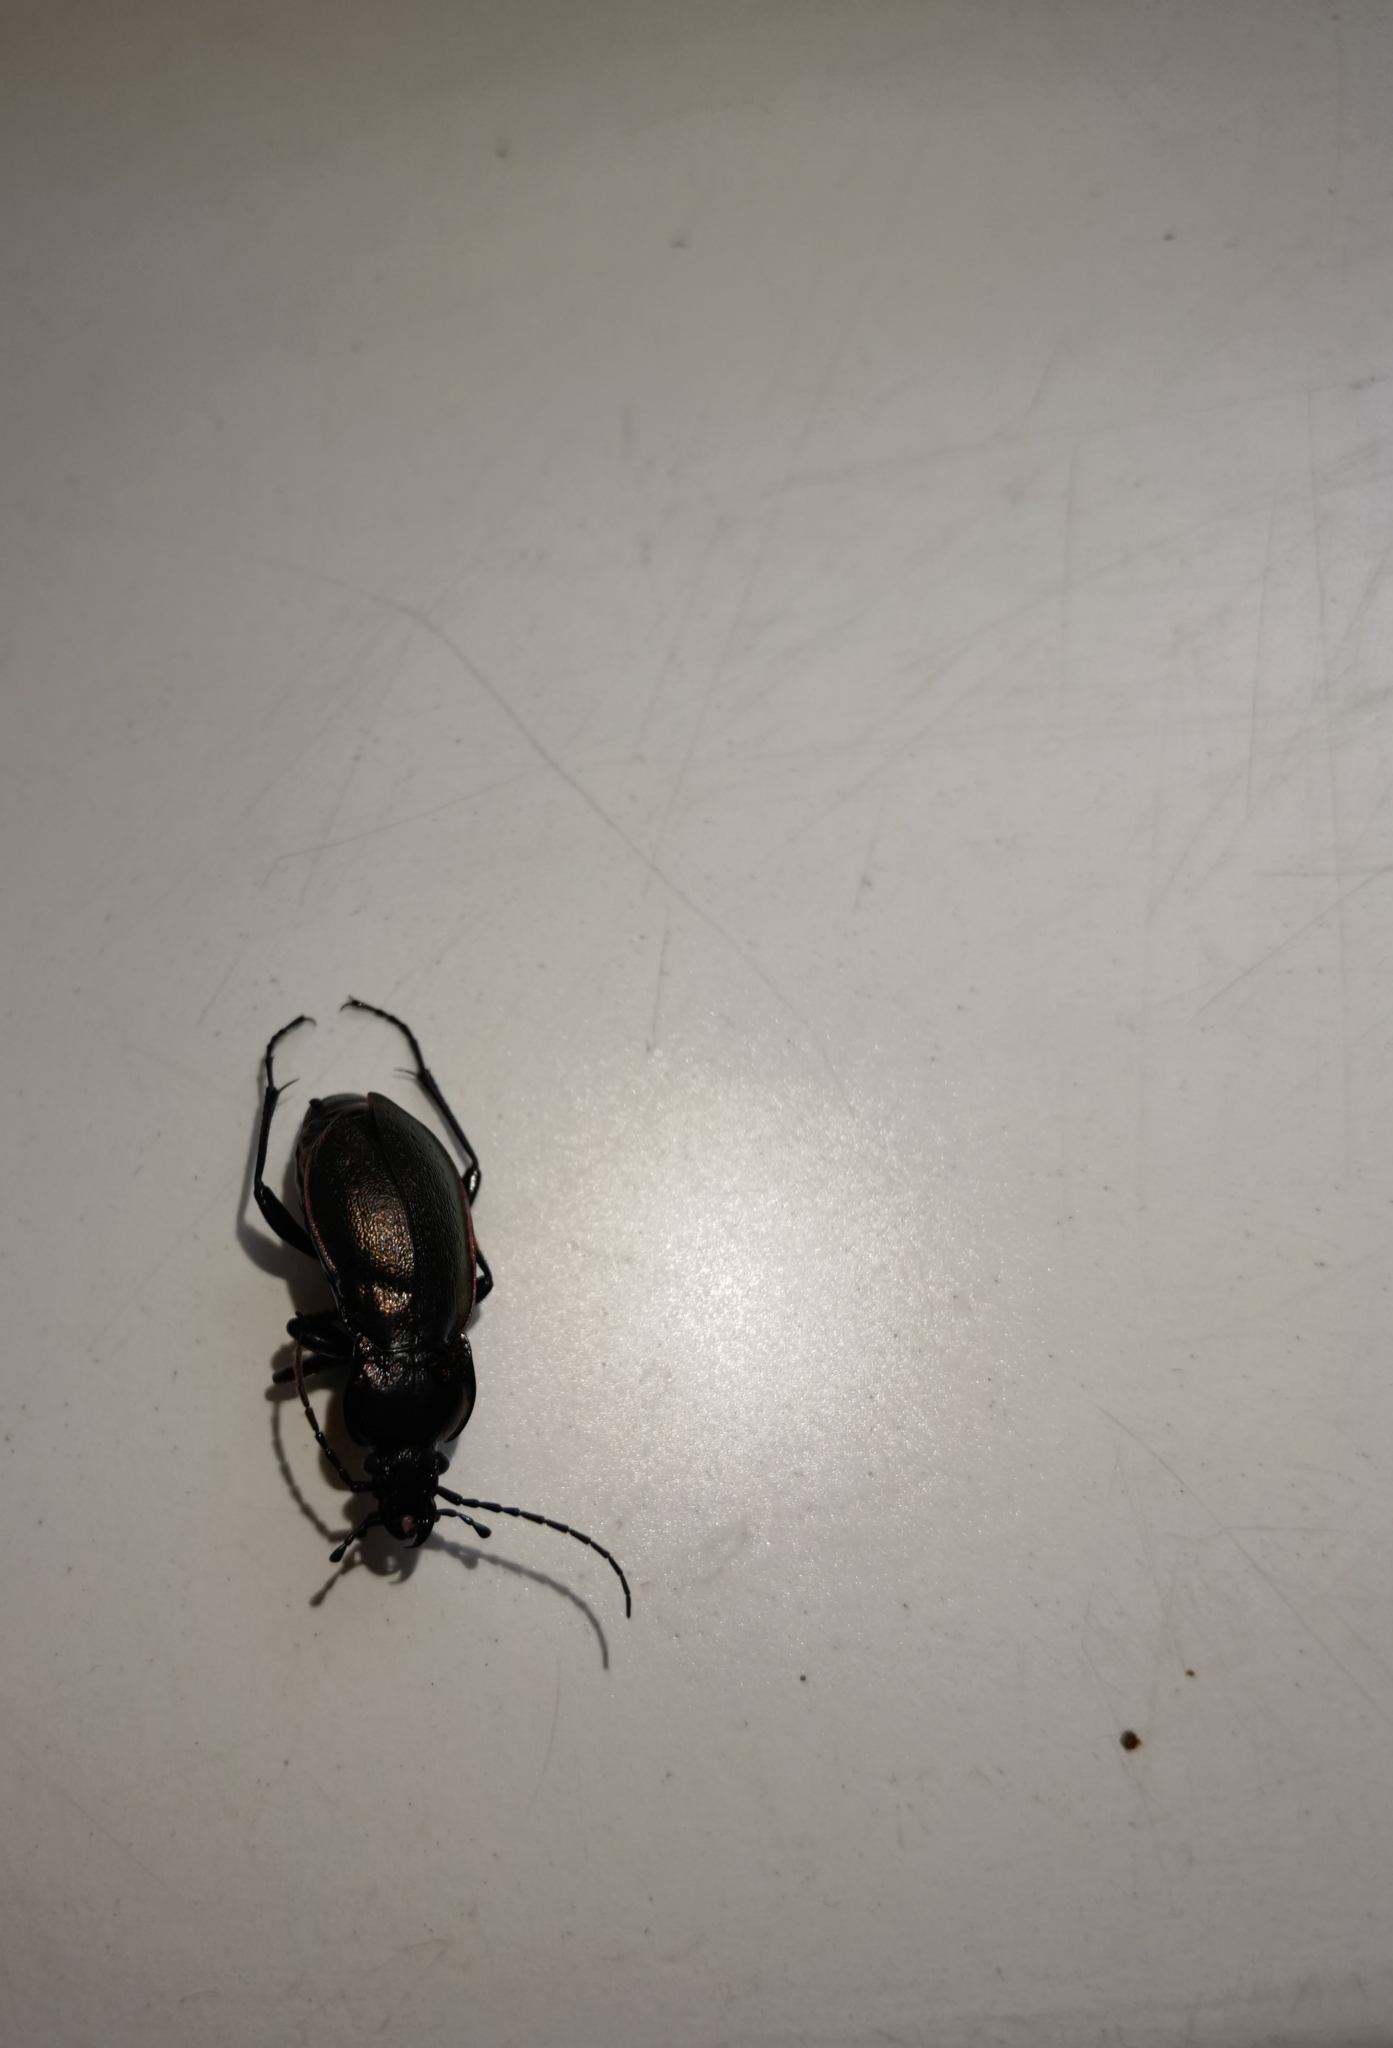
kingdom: Animalia
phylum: Arthropoda
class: Insecta
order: Coleoptera
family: Carabidae
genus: Carabus
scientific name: Carabus nemoralis
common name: European ground beetle
